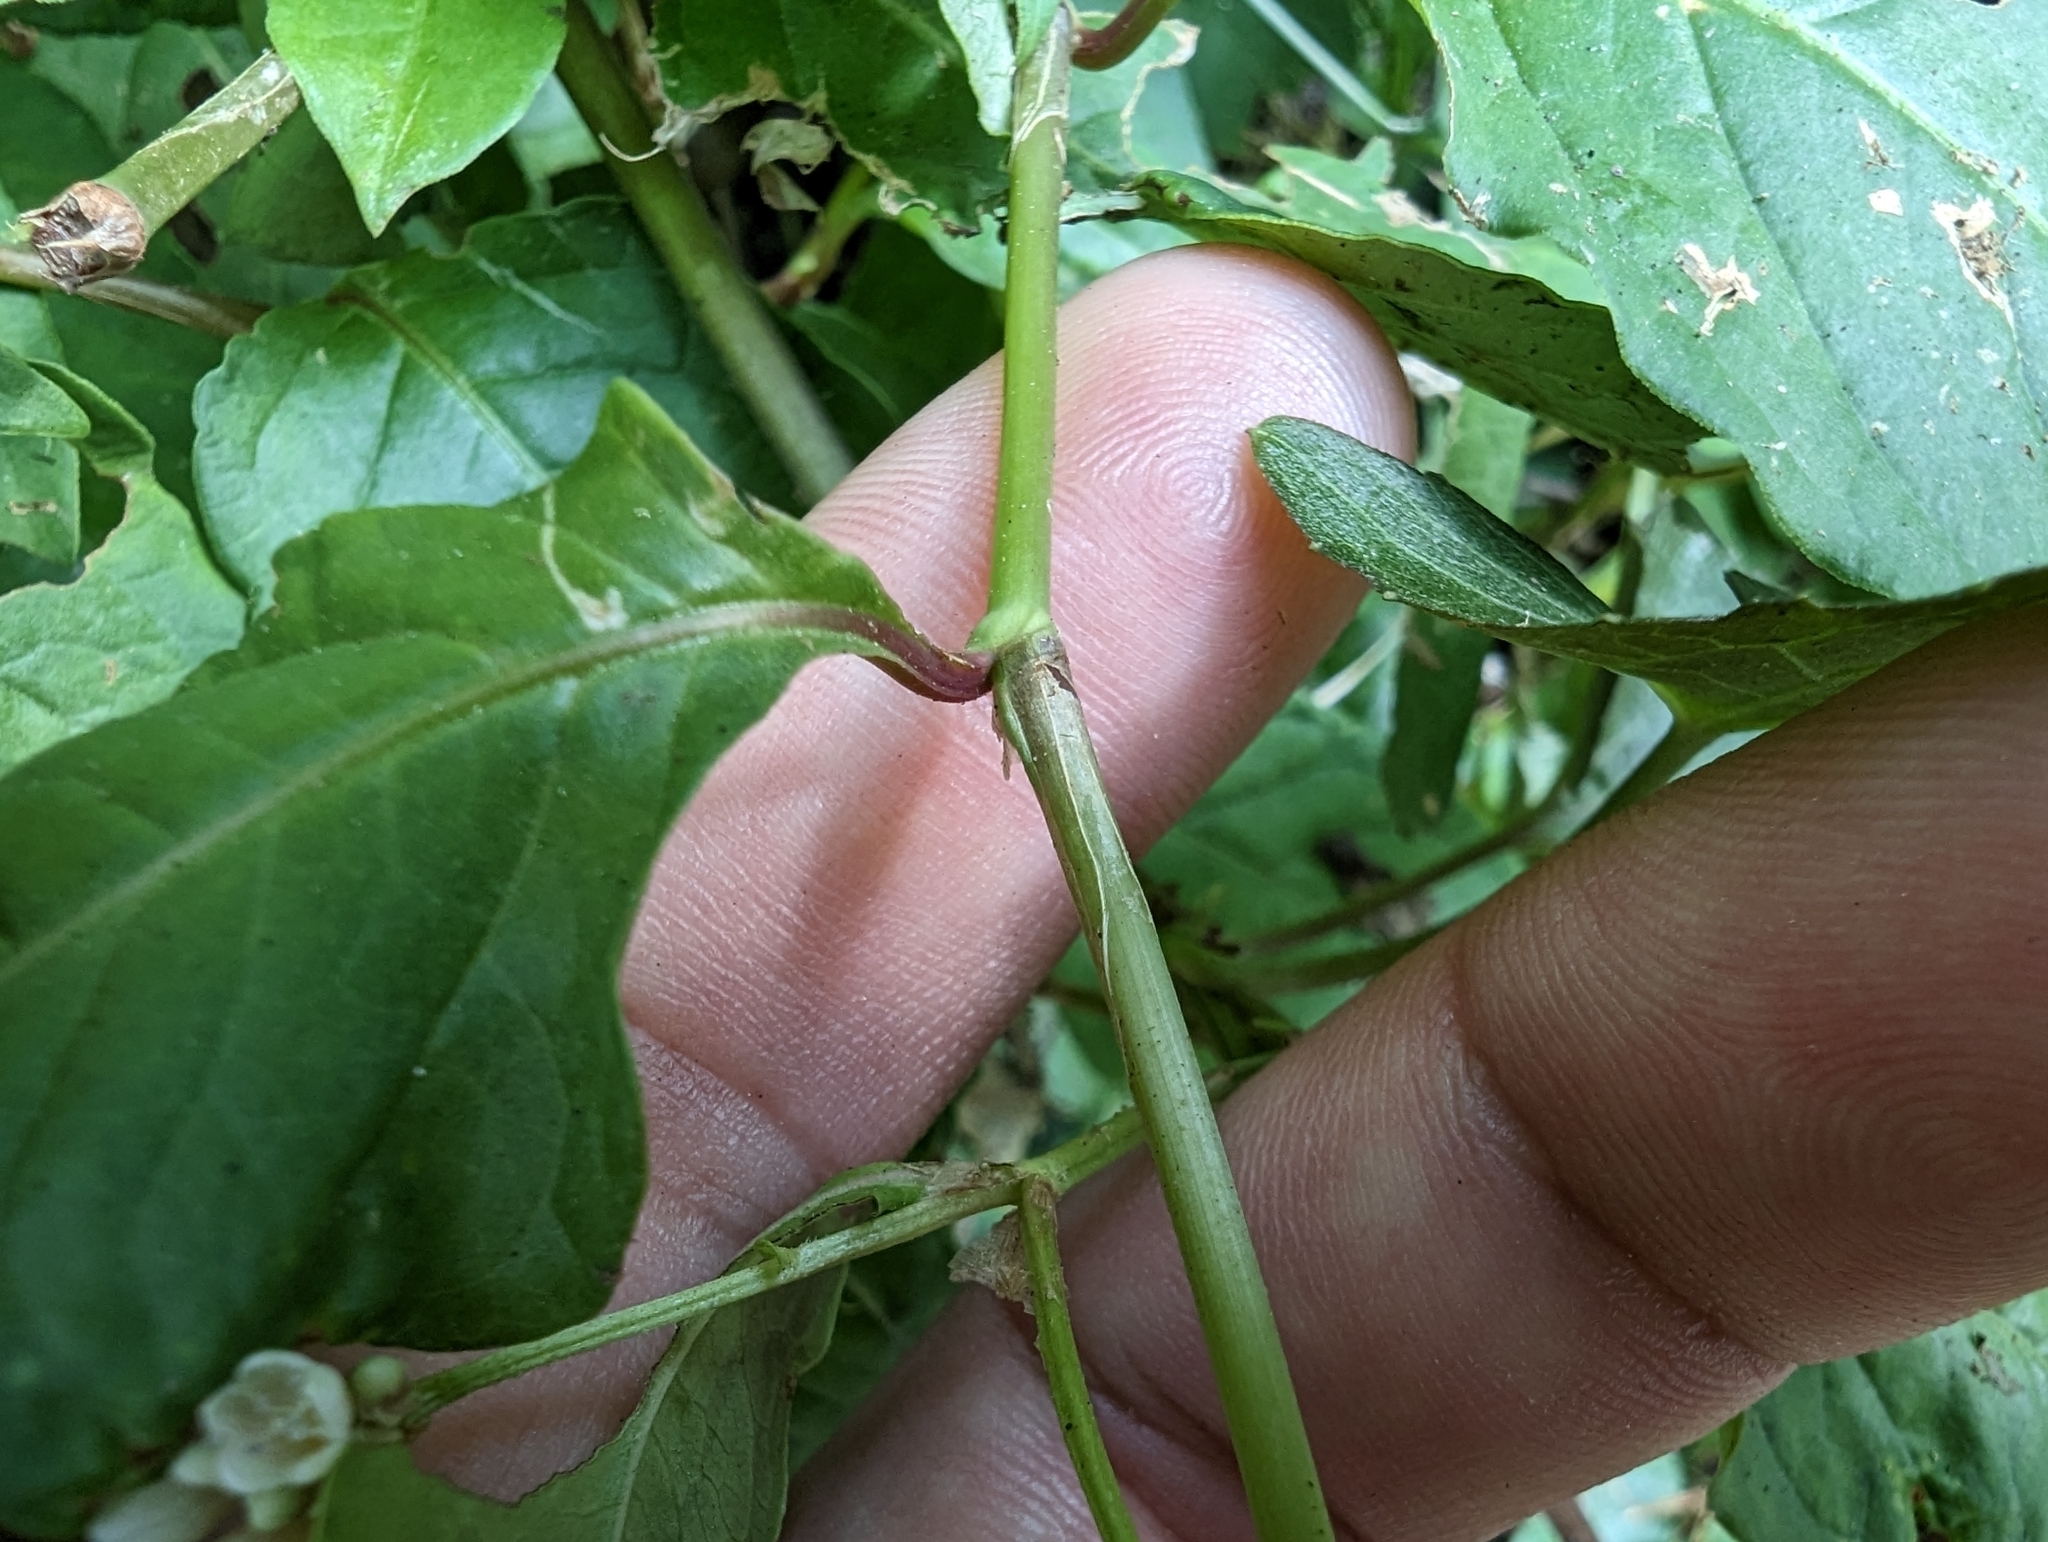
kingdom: Plantae
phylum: Tracheophyta
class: Magnoliopsida
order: Caryophyllales
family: Polygonaceae
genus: Persicaria
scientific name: Persicaria chinensis
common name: Chinese knotweed
